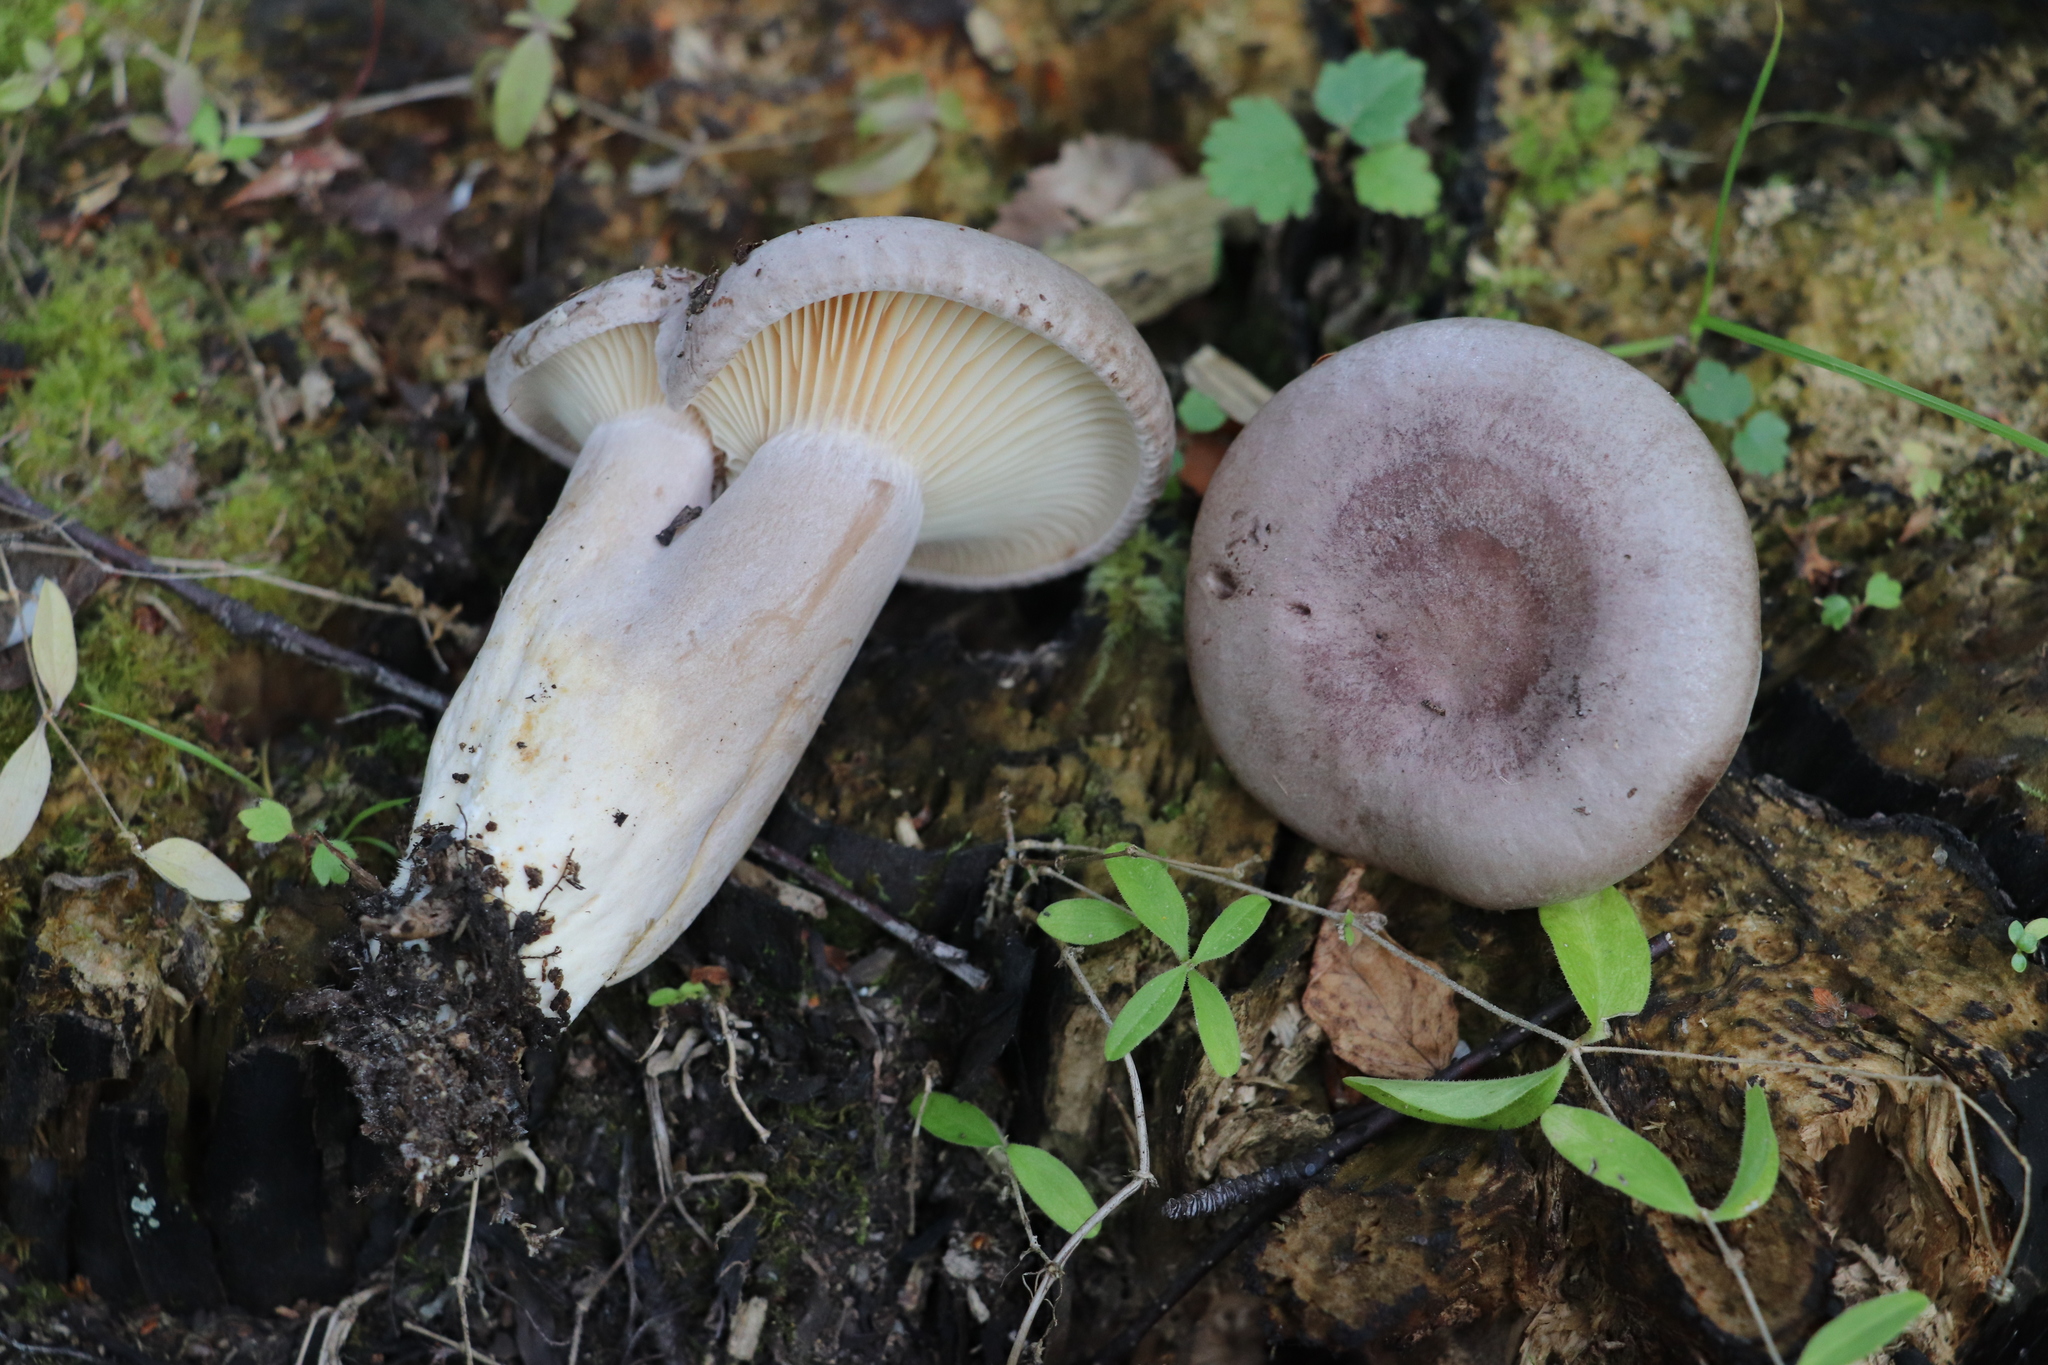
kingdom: Fungi
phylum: Basidiomycota
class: Agaricomycetes
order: Russulales
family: Russulaceae
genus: Lactarius
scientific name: Lactarius flexuosus
